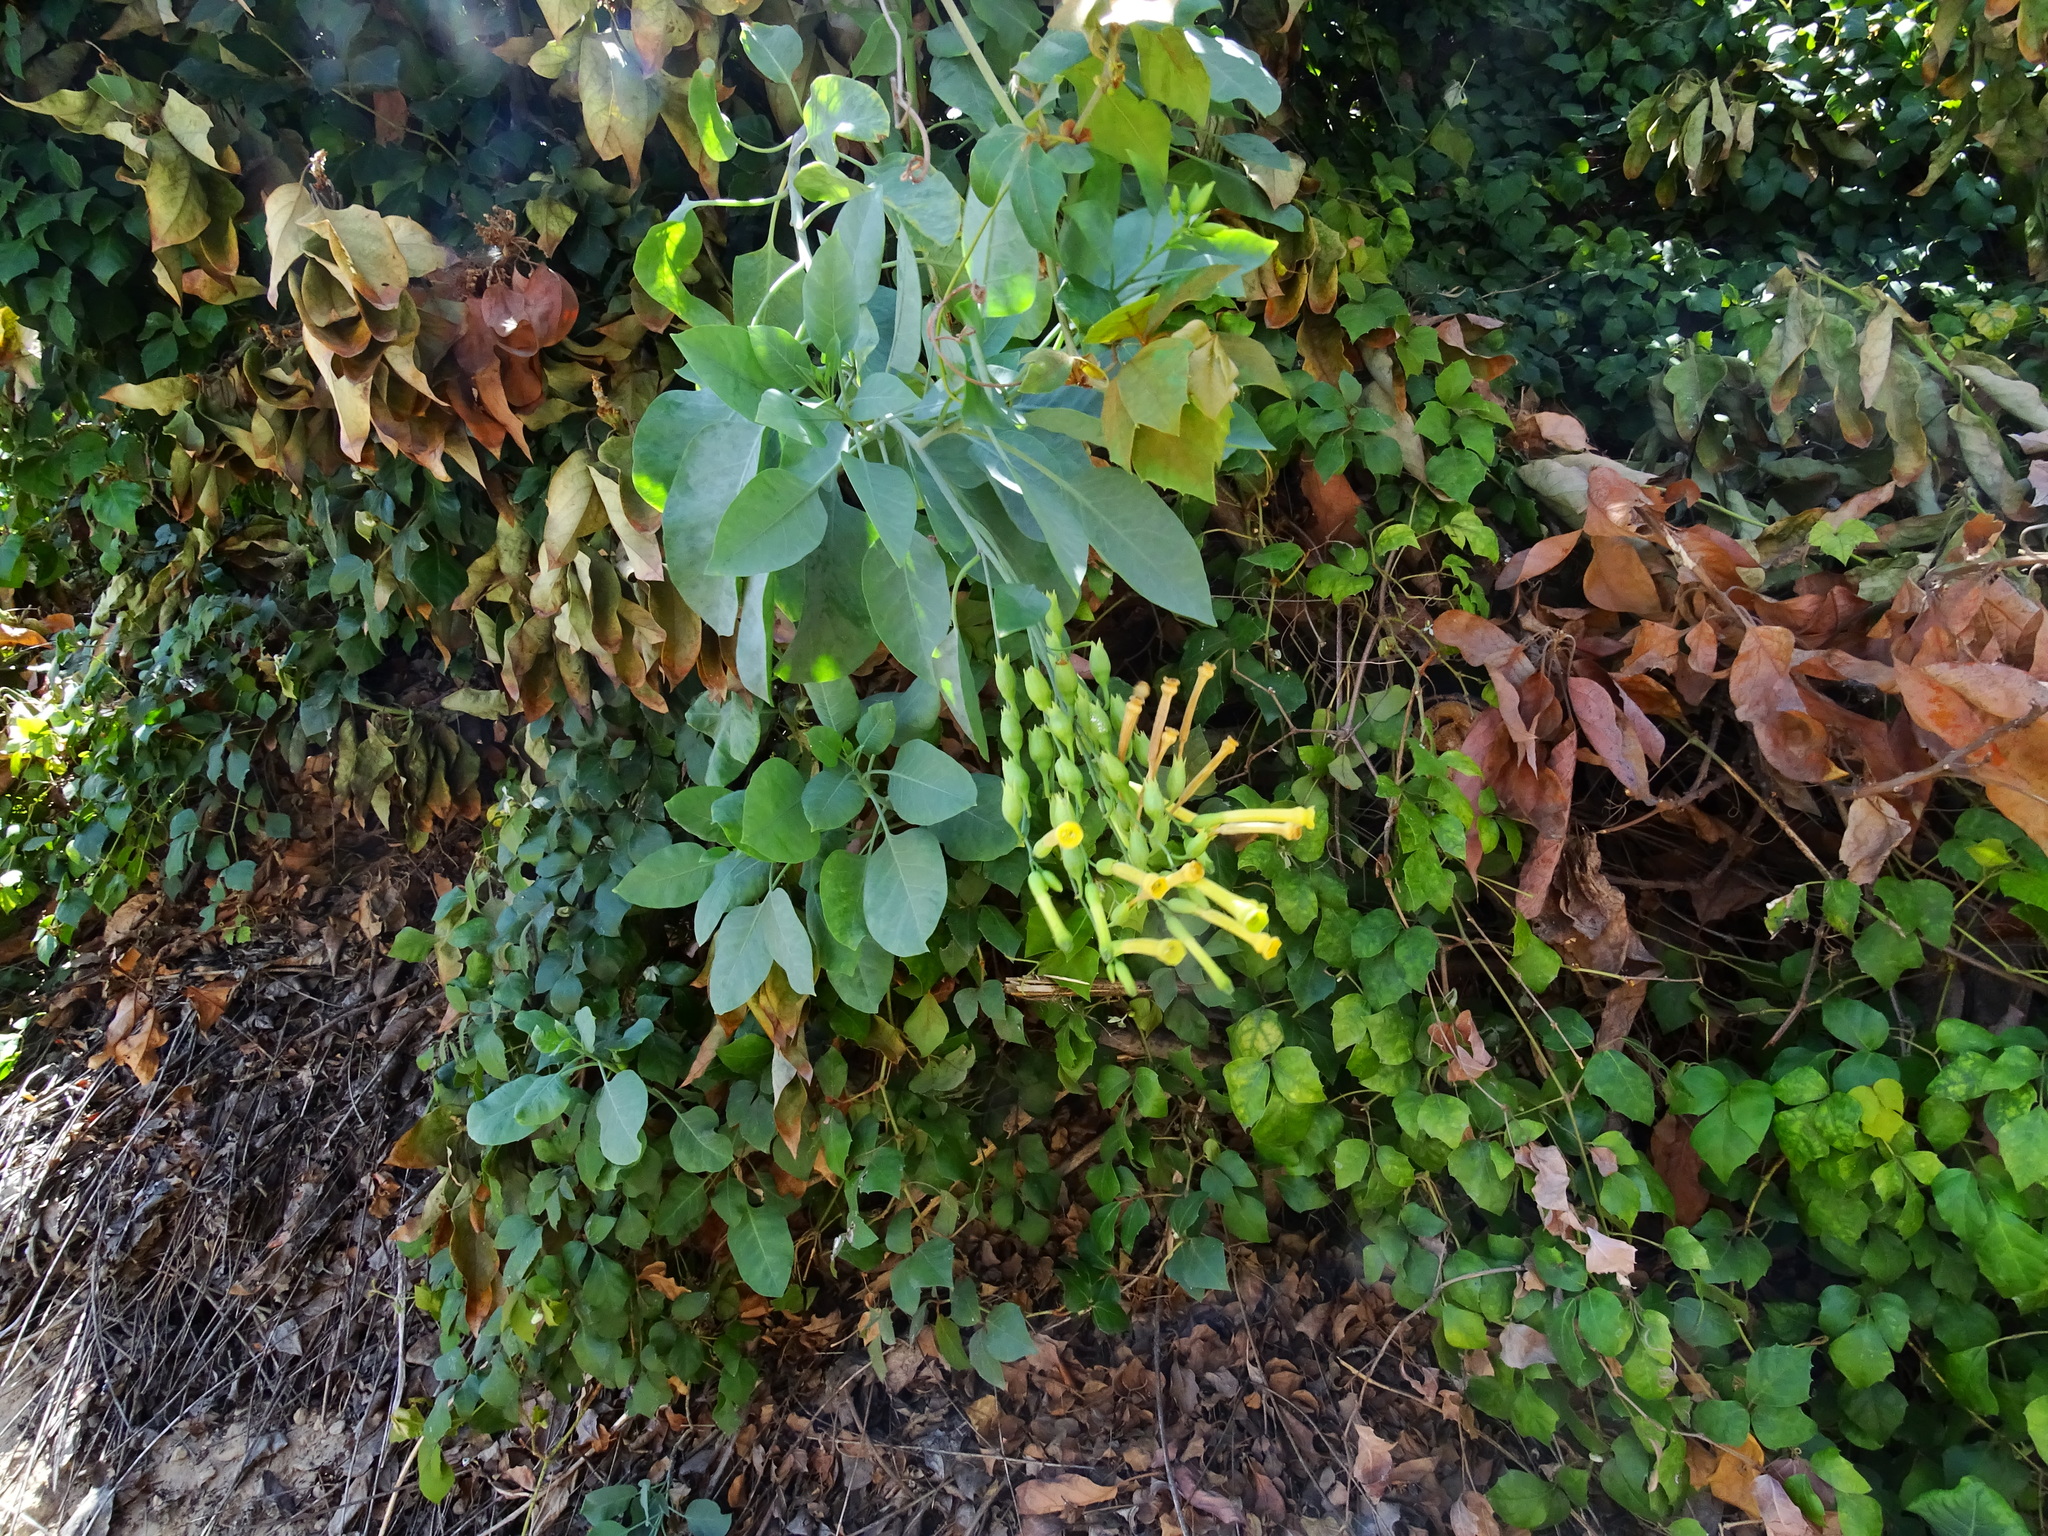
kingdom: Plantae
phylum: Tracheophyta
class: Magnoliopsida
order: Solanales
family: Solanaceae
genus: Nicotiana
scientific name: Nicotiana glauca
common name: Tree tobacco
